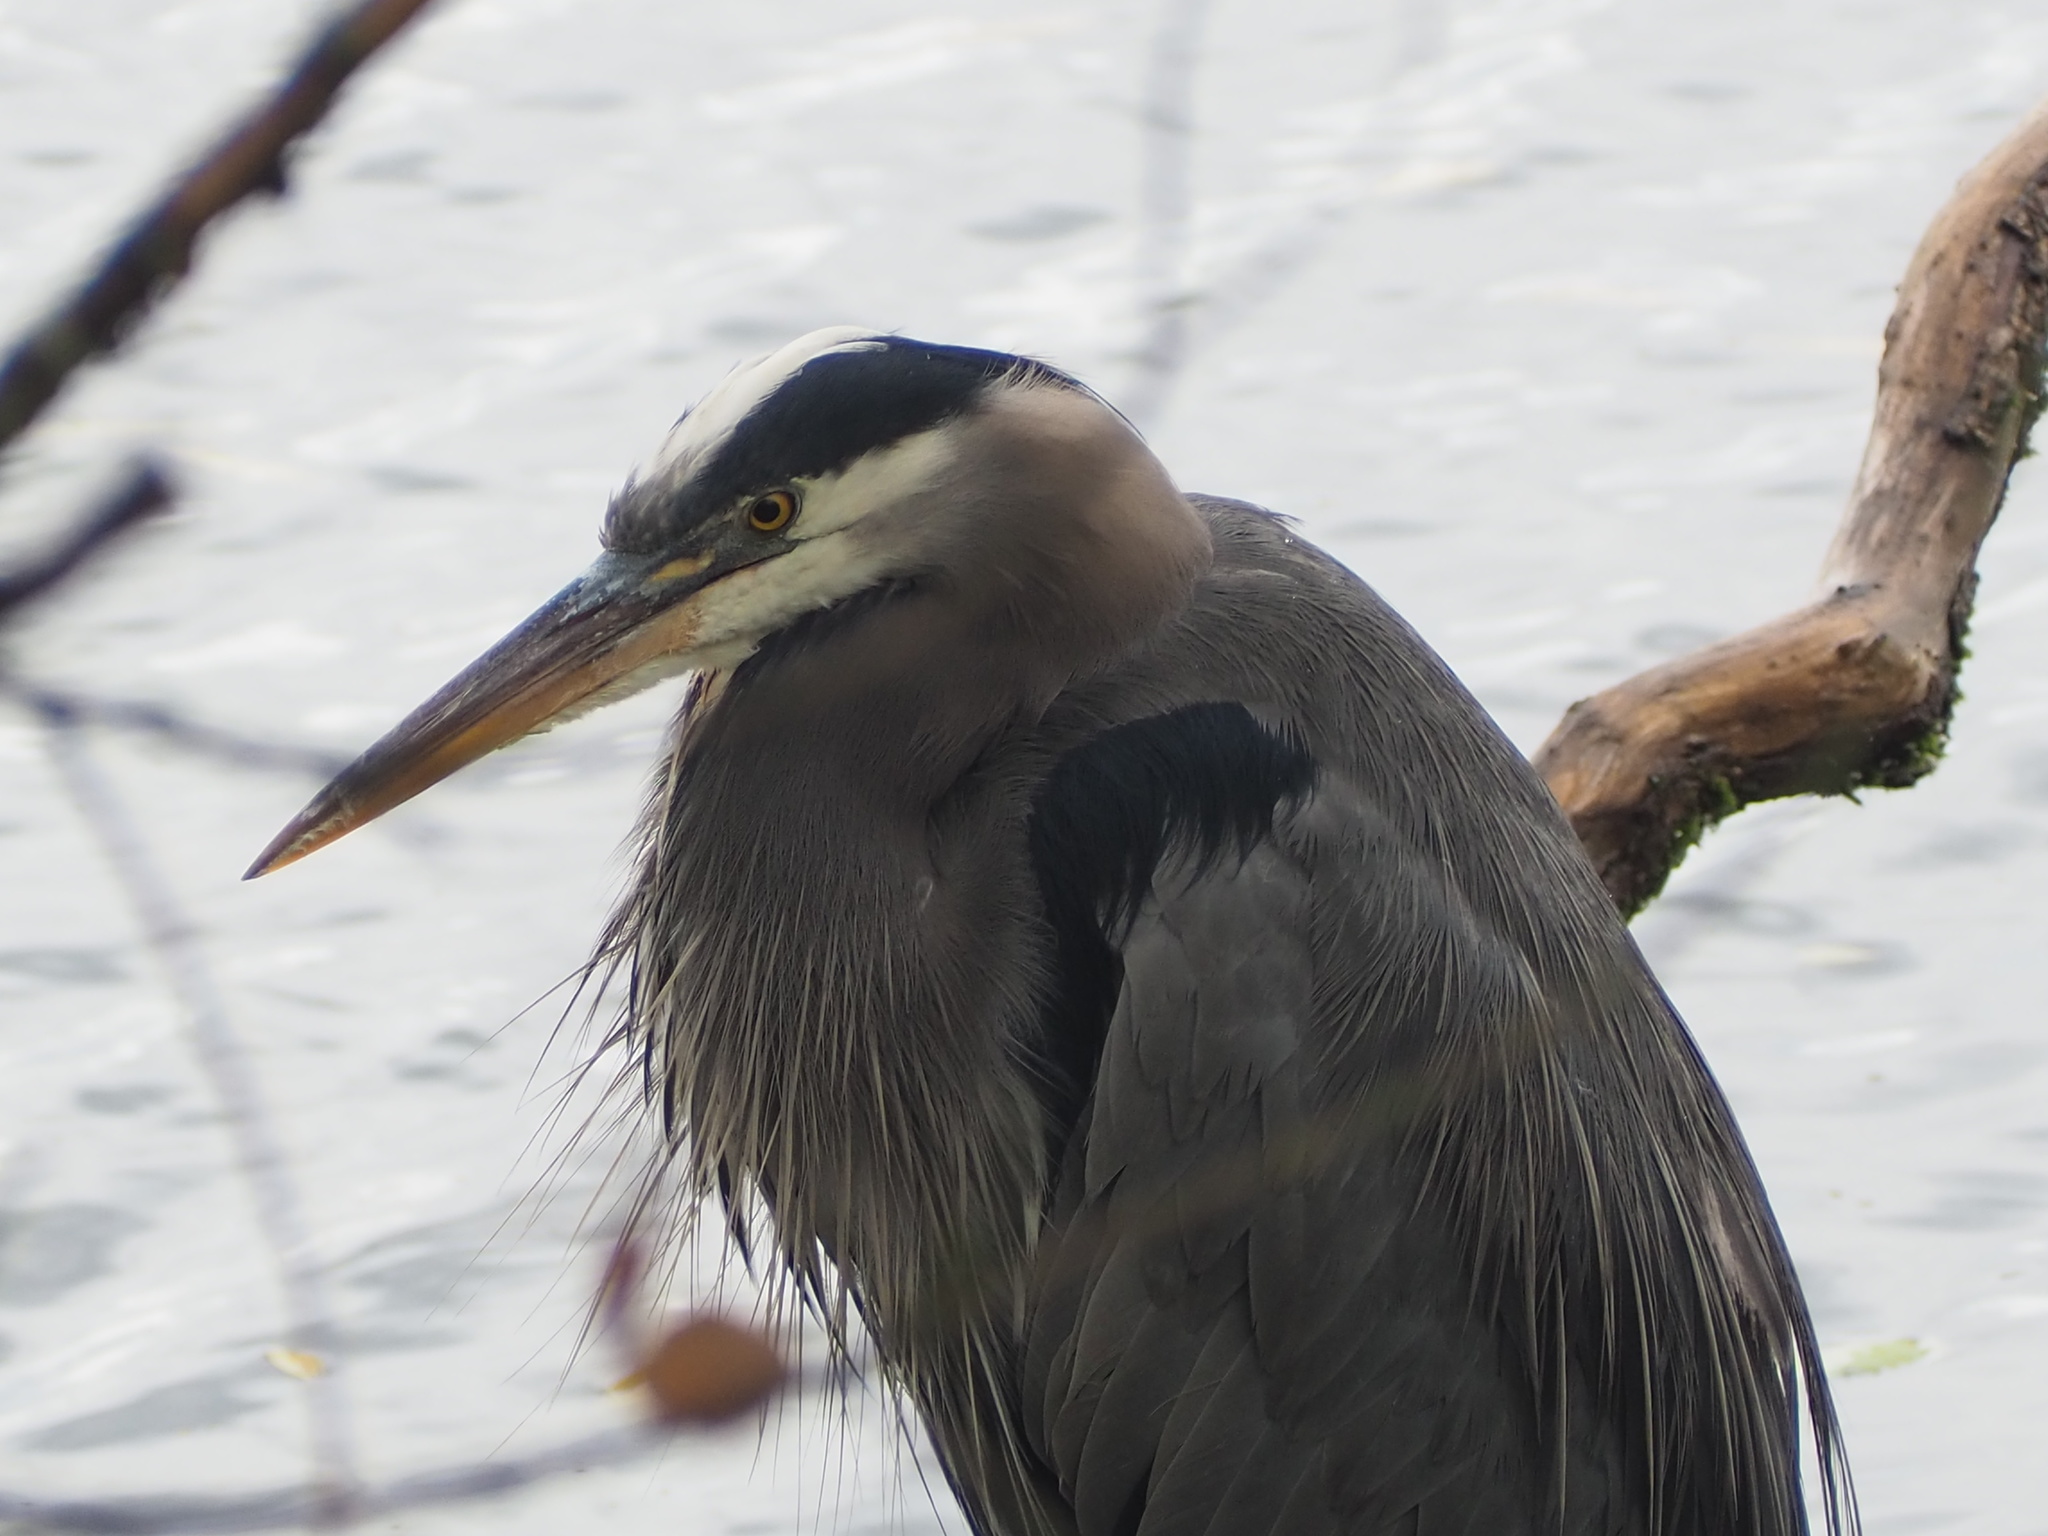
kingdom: Animalia
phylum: Chordata
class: Aves
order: Pelecaniformes
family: Ardeidae
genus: Ardea
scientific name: Ardea herodias
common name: Great blue heron
